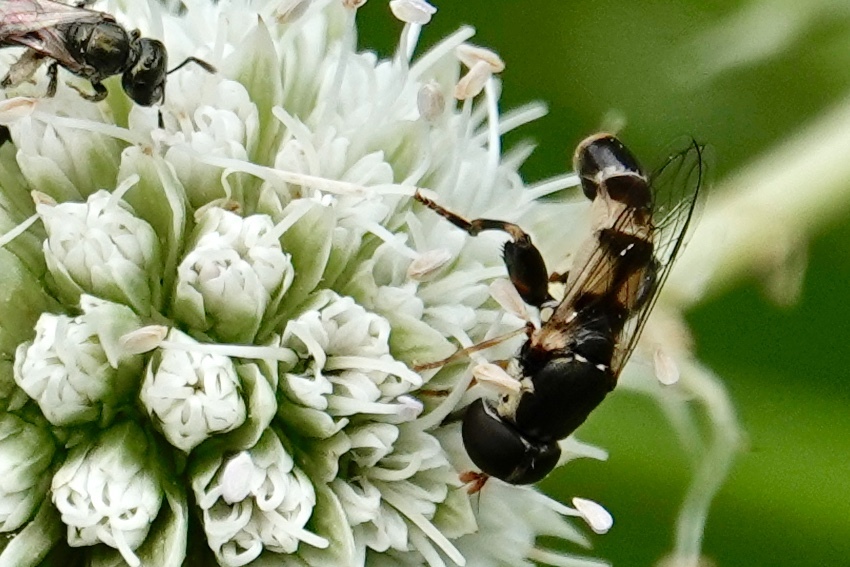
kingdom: Animalia
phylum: Arthropoda
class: Insecta
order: Diptera
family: Syrphidae
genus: Syritta
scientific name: Syritta pipiens
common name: Hover fly
